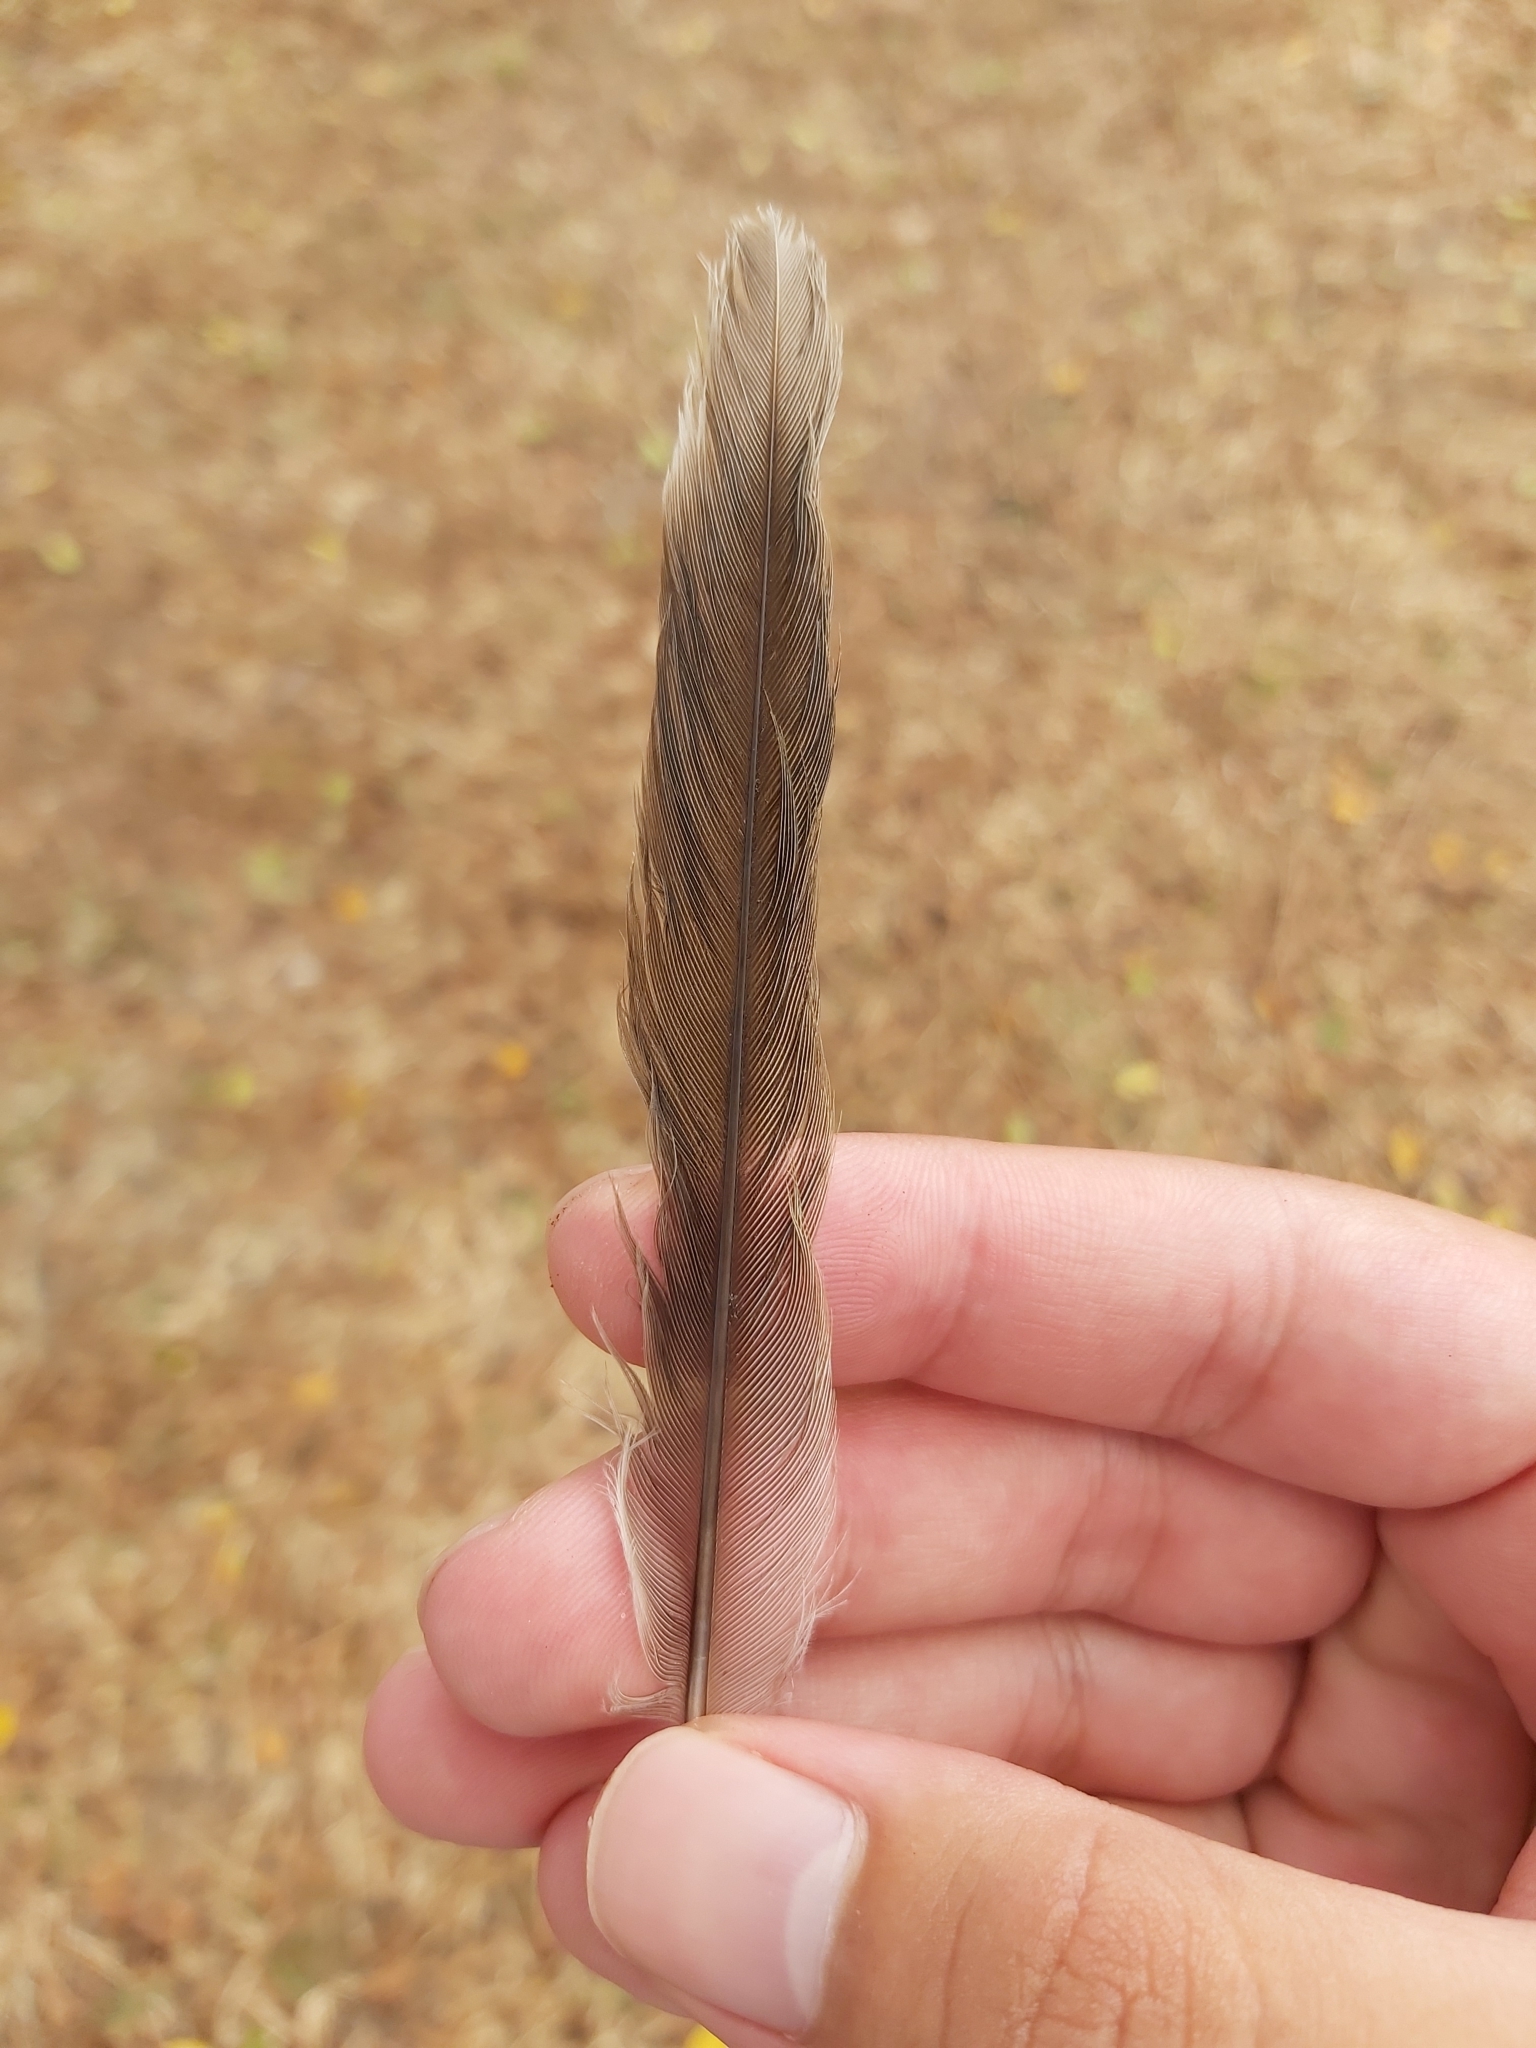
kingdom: Animalia
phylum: Chordata
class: Aves
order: Passeriformes
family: Meliphagidae
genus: Manorina
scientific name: Manorina melanocephala
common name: Noisy miner
